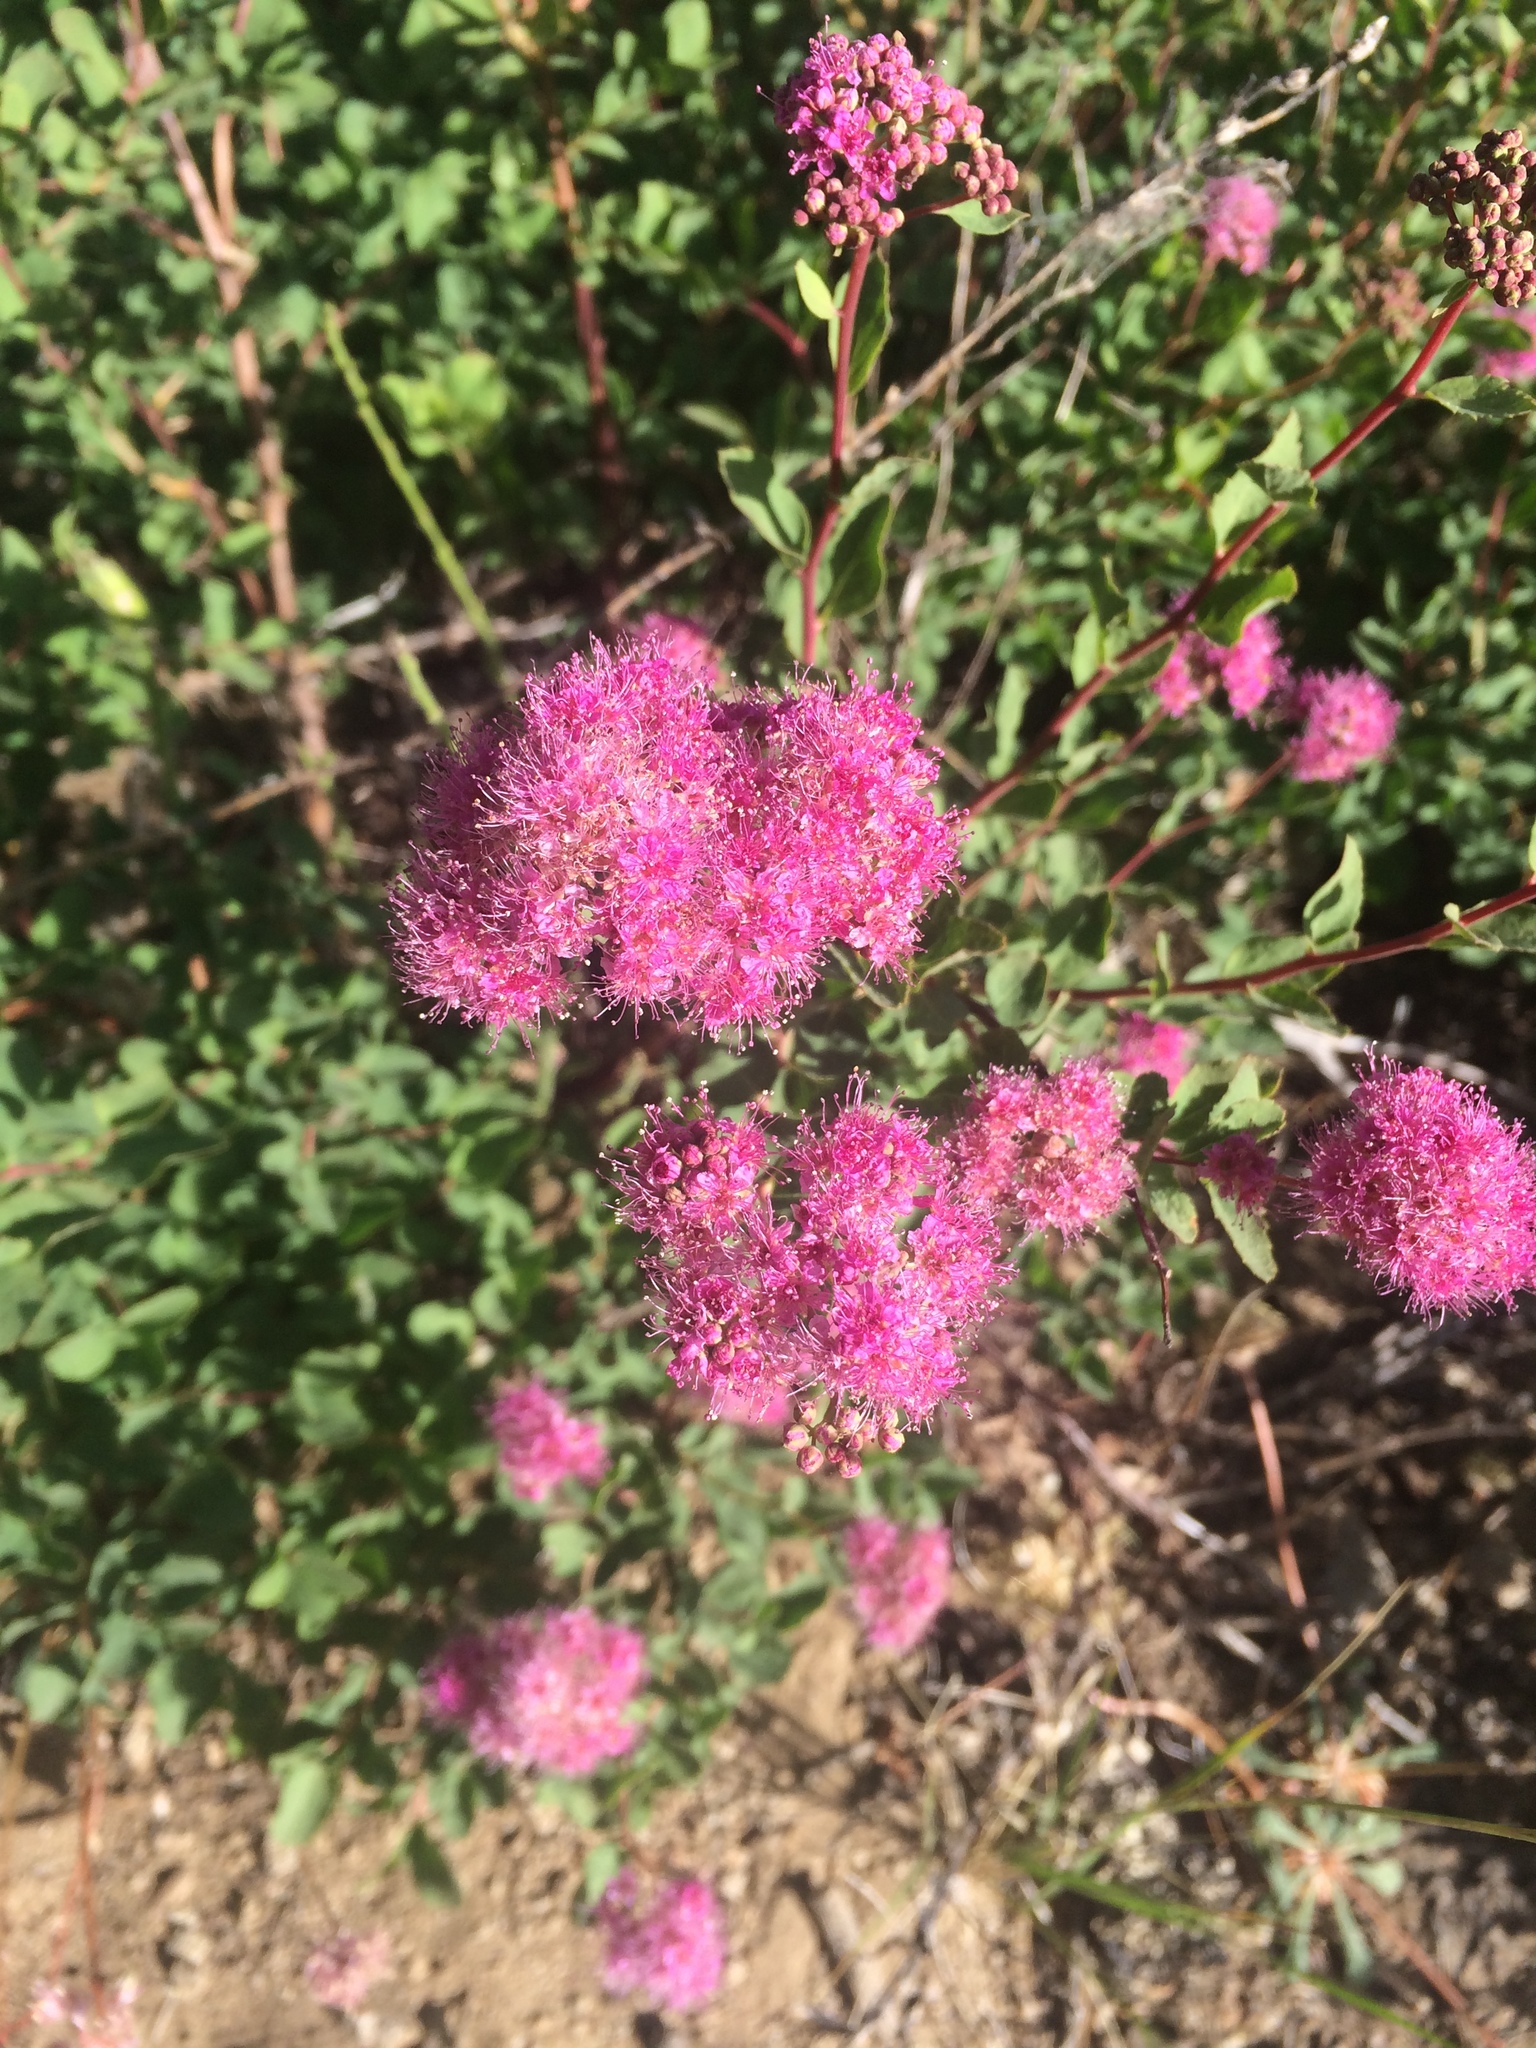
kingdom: Plantae
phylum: Tracheophyta
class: Magnoliopsida
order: Rosales
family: Rosaceae
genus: Spiraea
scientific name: Spiraea splendens
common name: Subalpine meadowsweet
